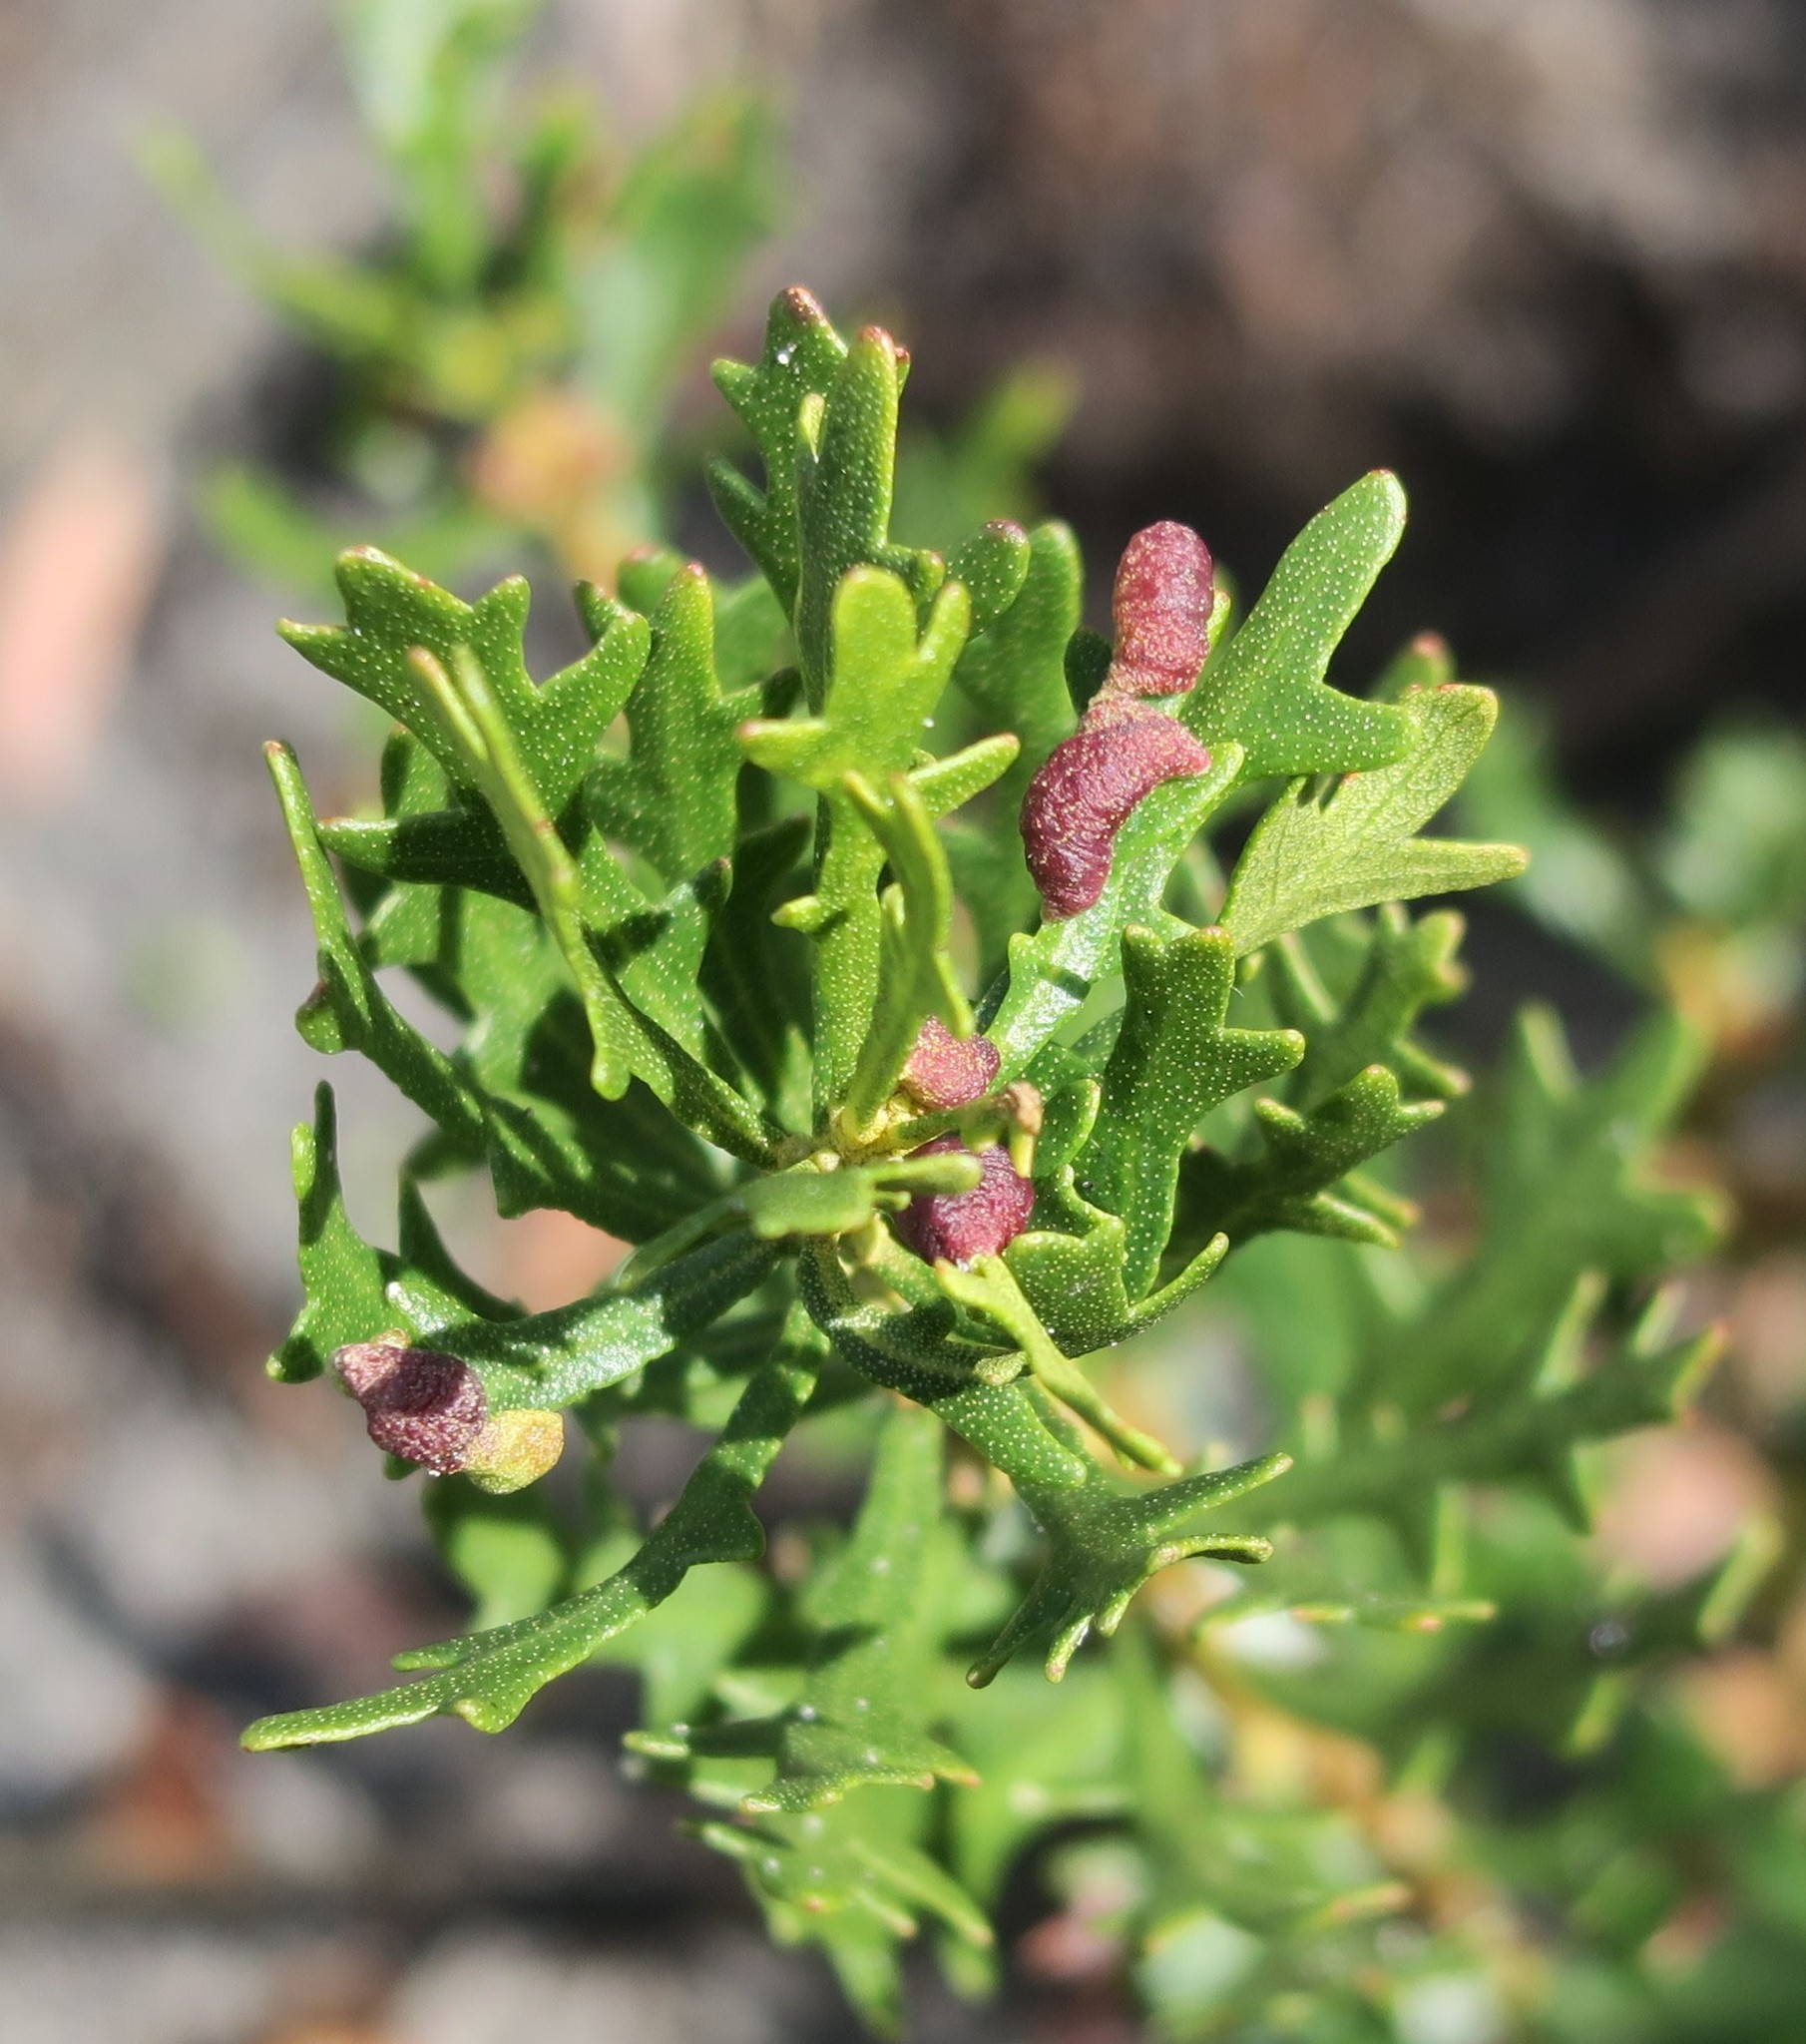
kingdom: Plantae
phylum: Tracheophyta
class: Magnoliopsida
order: Fagales
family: Myricaceae
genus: Morella
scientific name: Morella quercifolia
